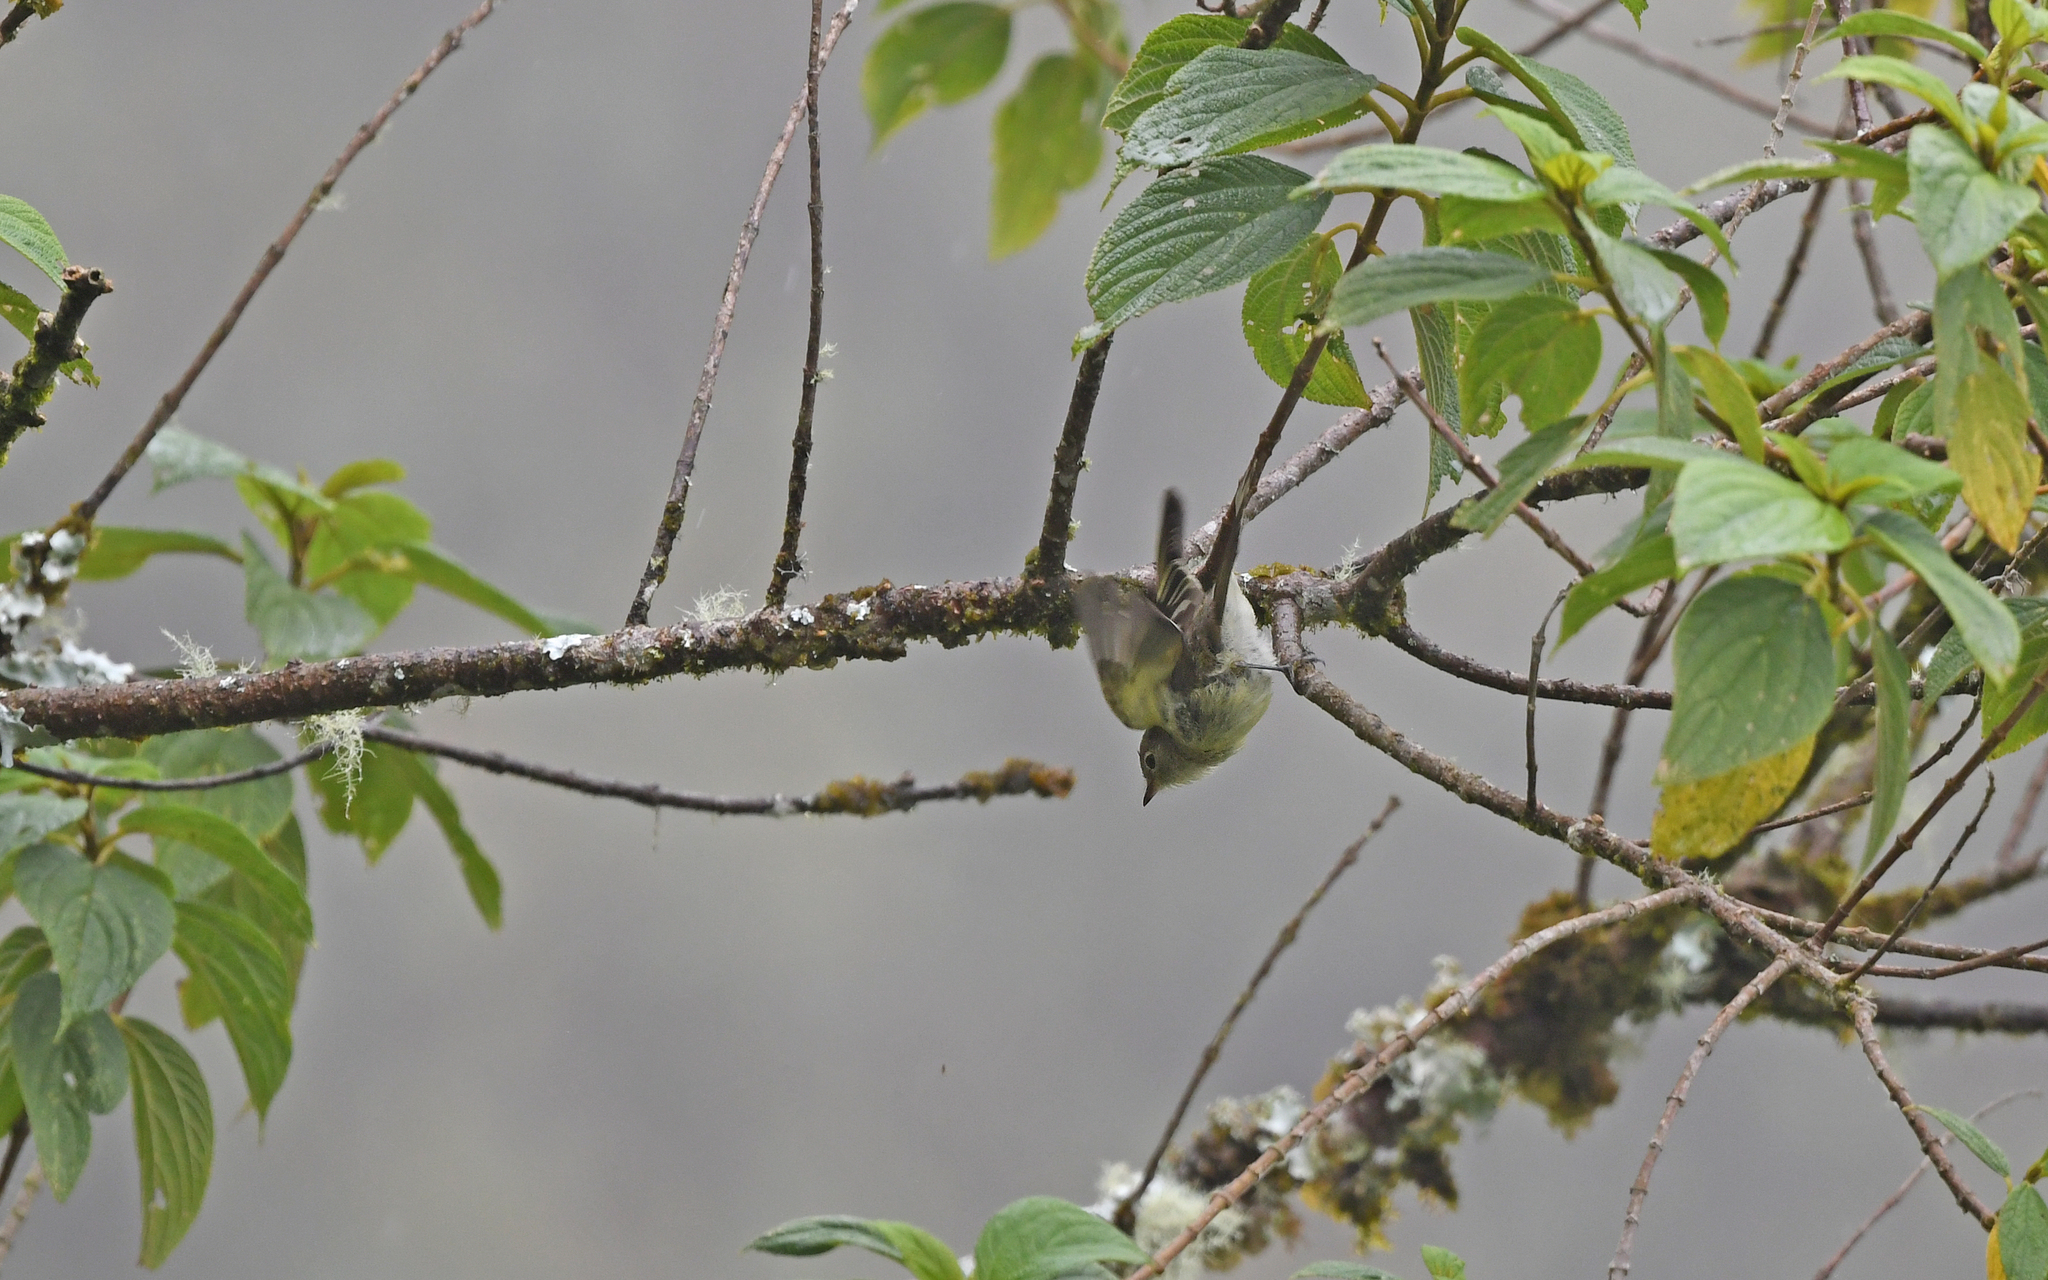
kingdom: Animalia
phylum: Chordata
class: Aves
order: Passeriformes
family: Tyrannidae
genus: Elaenia
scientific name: Elaenia pallatangae
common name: Sierran elaenia
